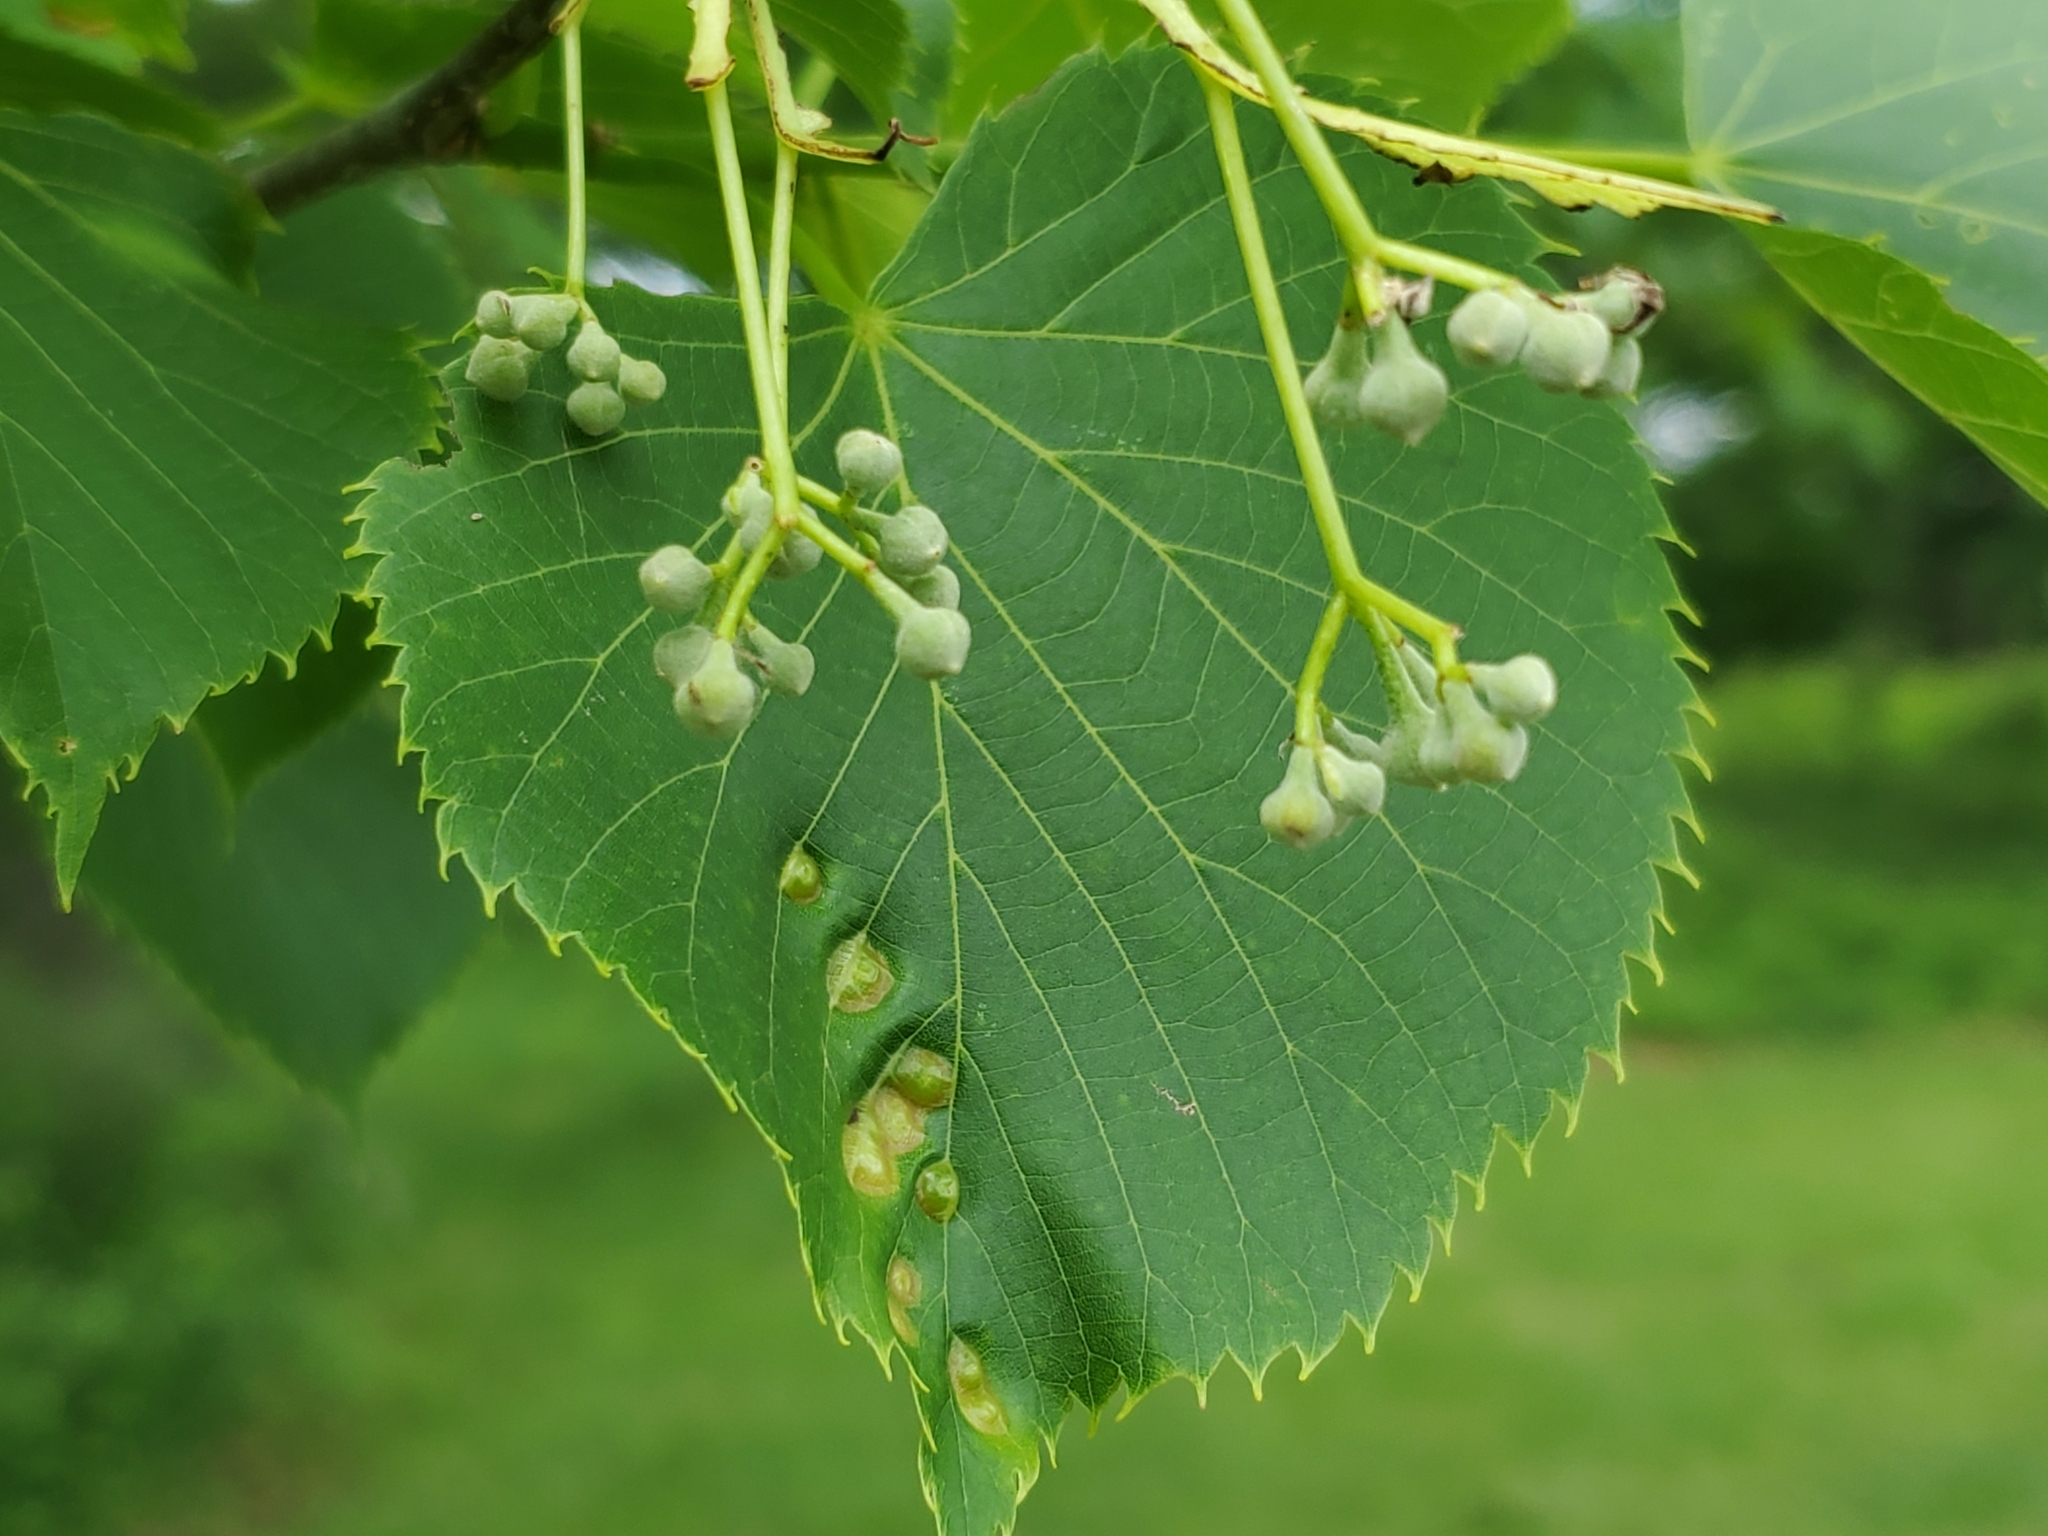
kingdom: Plantae
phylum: Tracheophyta
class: Magnoliopsida
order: Malvales
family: Malvaceae
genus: Tilia
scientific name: Tilia americana
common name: Basswood
